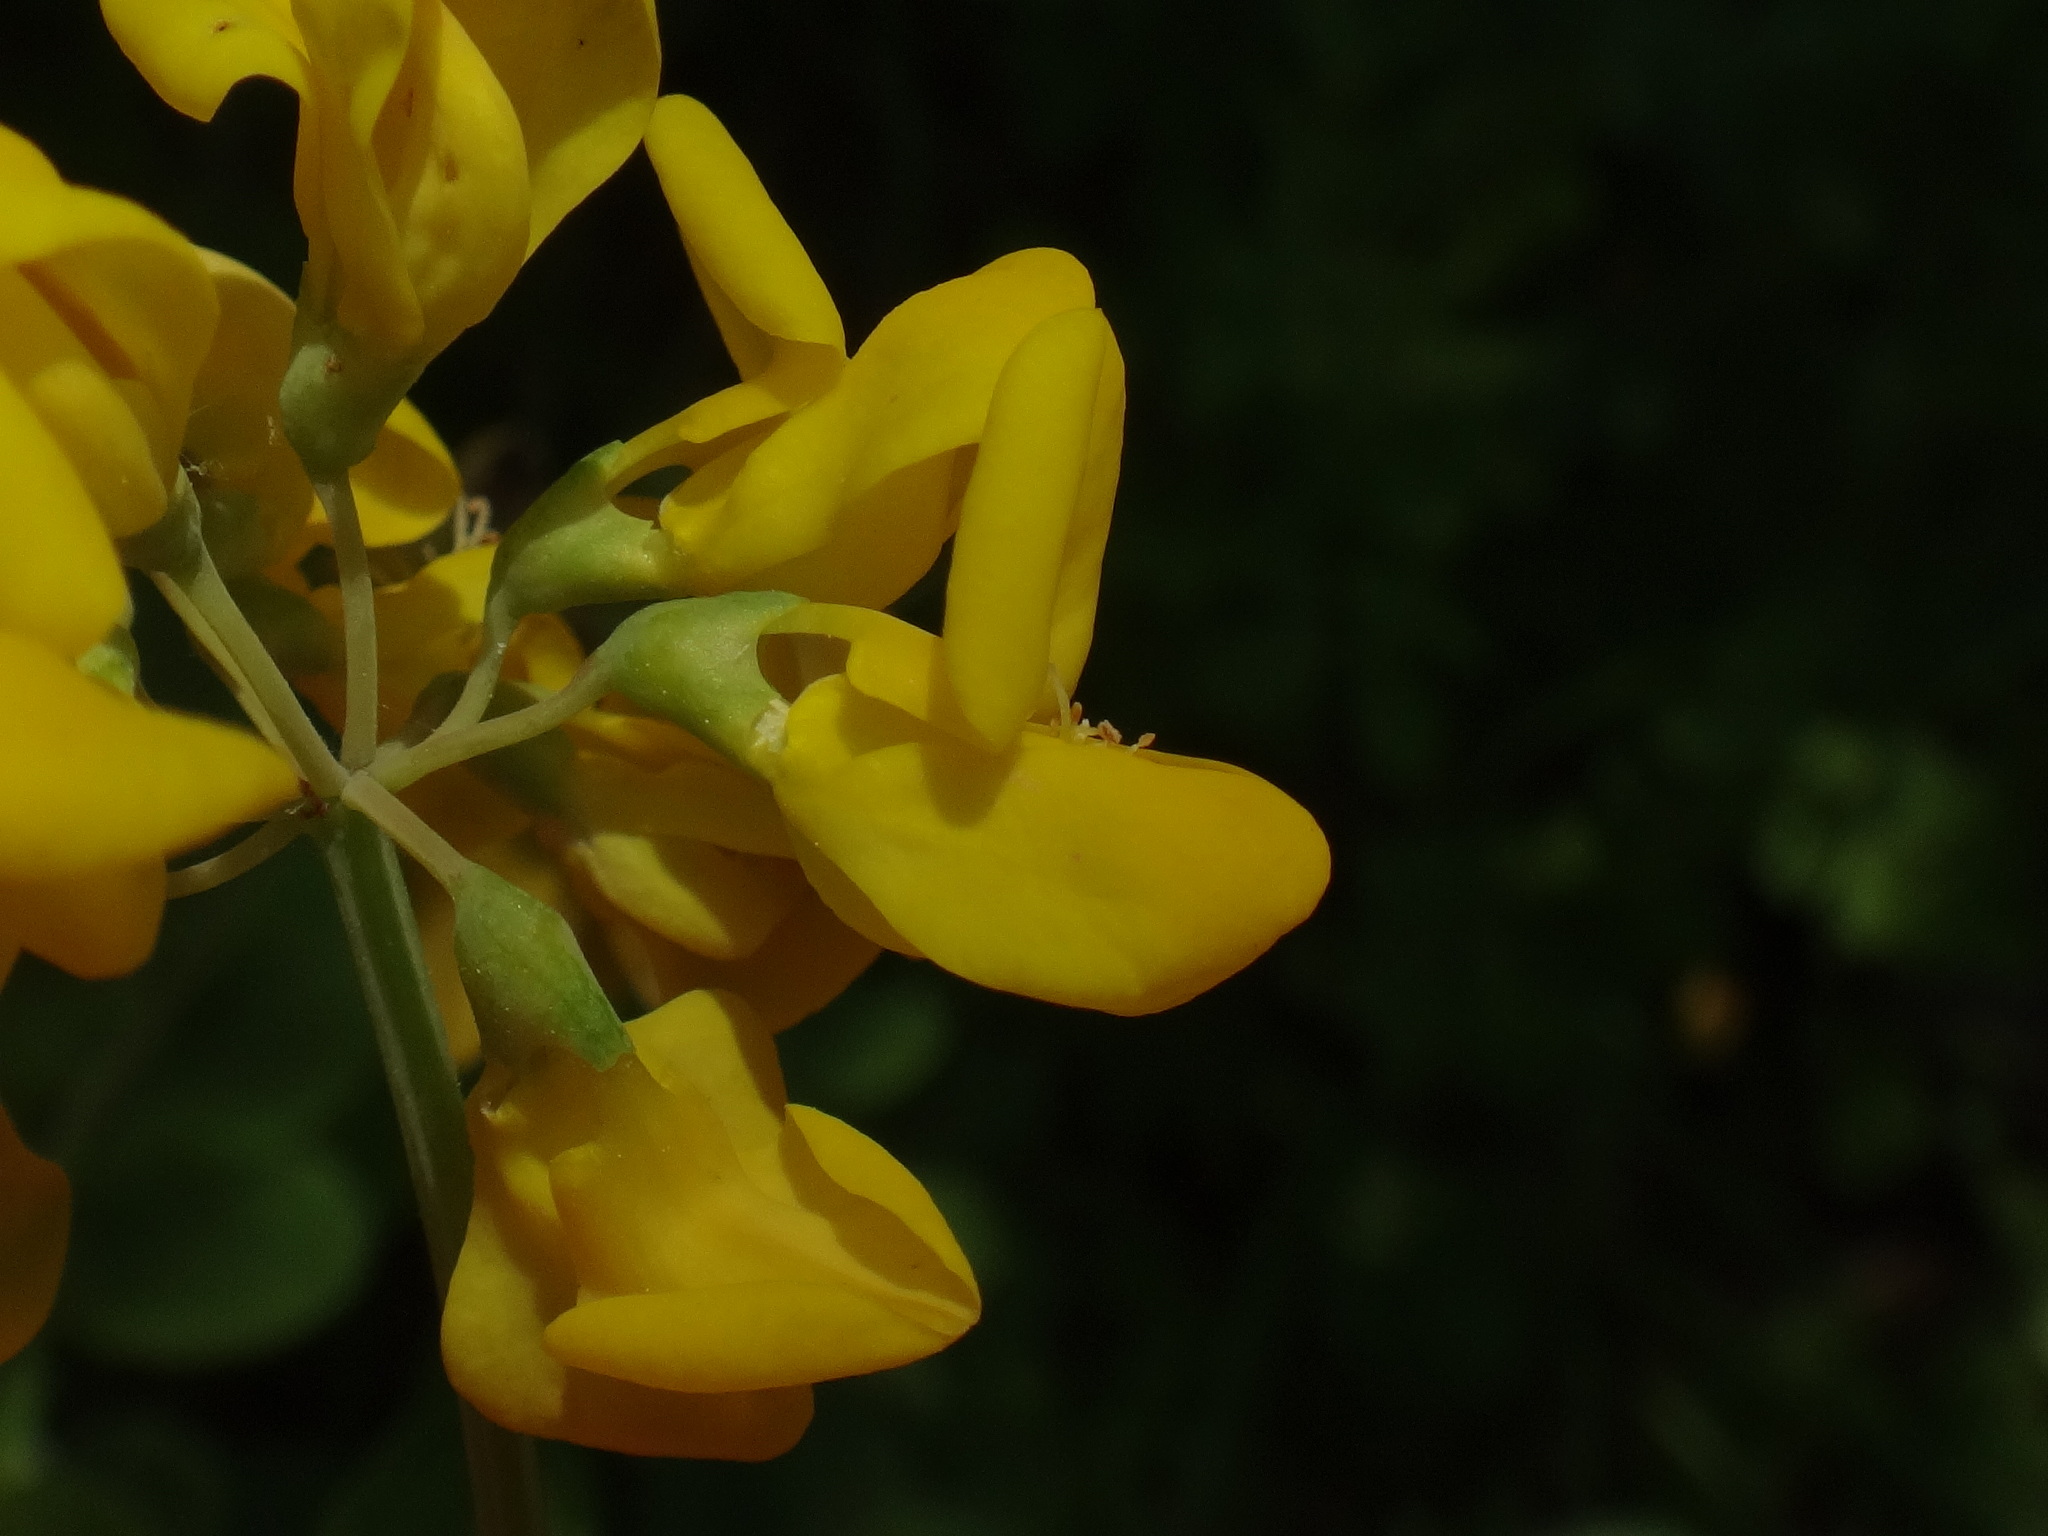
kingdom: Plantae
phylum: Tracheophyta
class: Magnoliopsida
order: Fabales
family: Fabaceae
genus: Coronilla
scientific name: Coronilla coronata
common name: Scorpion-vetch
